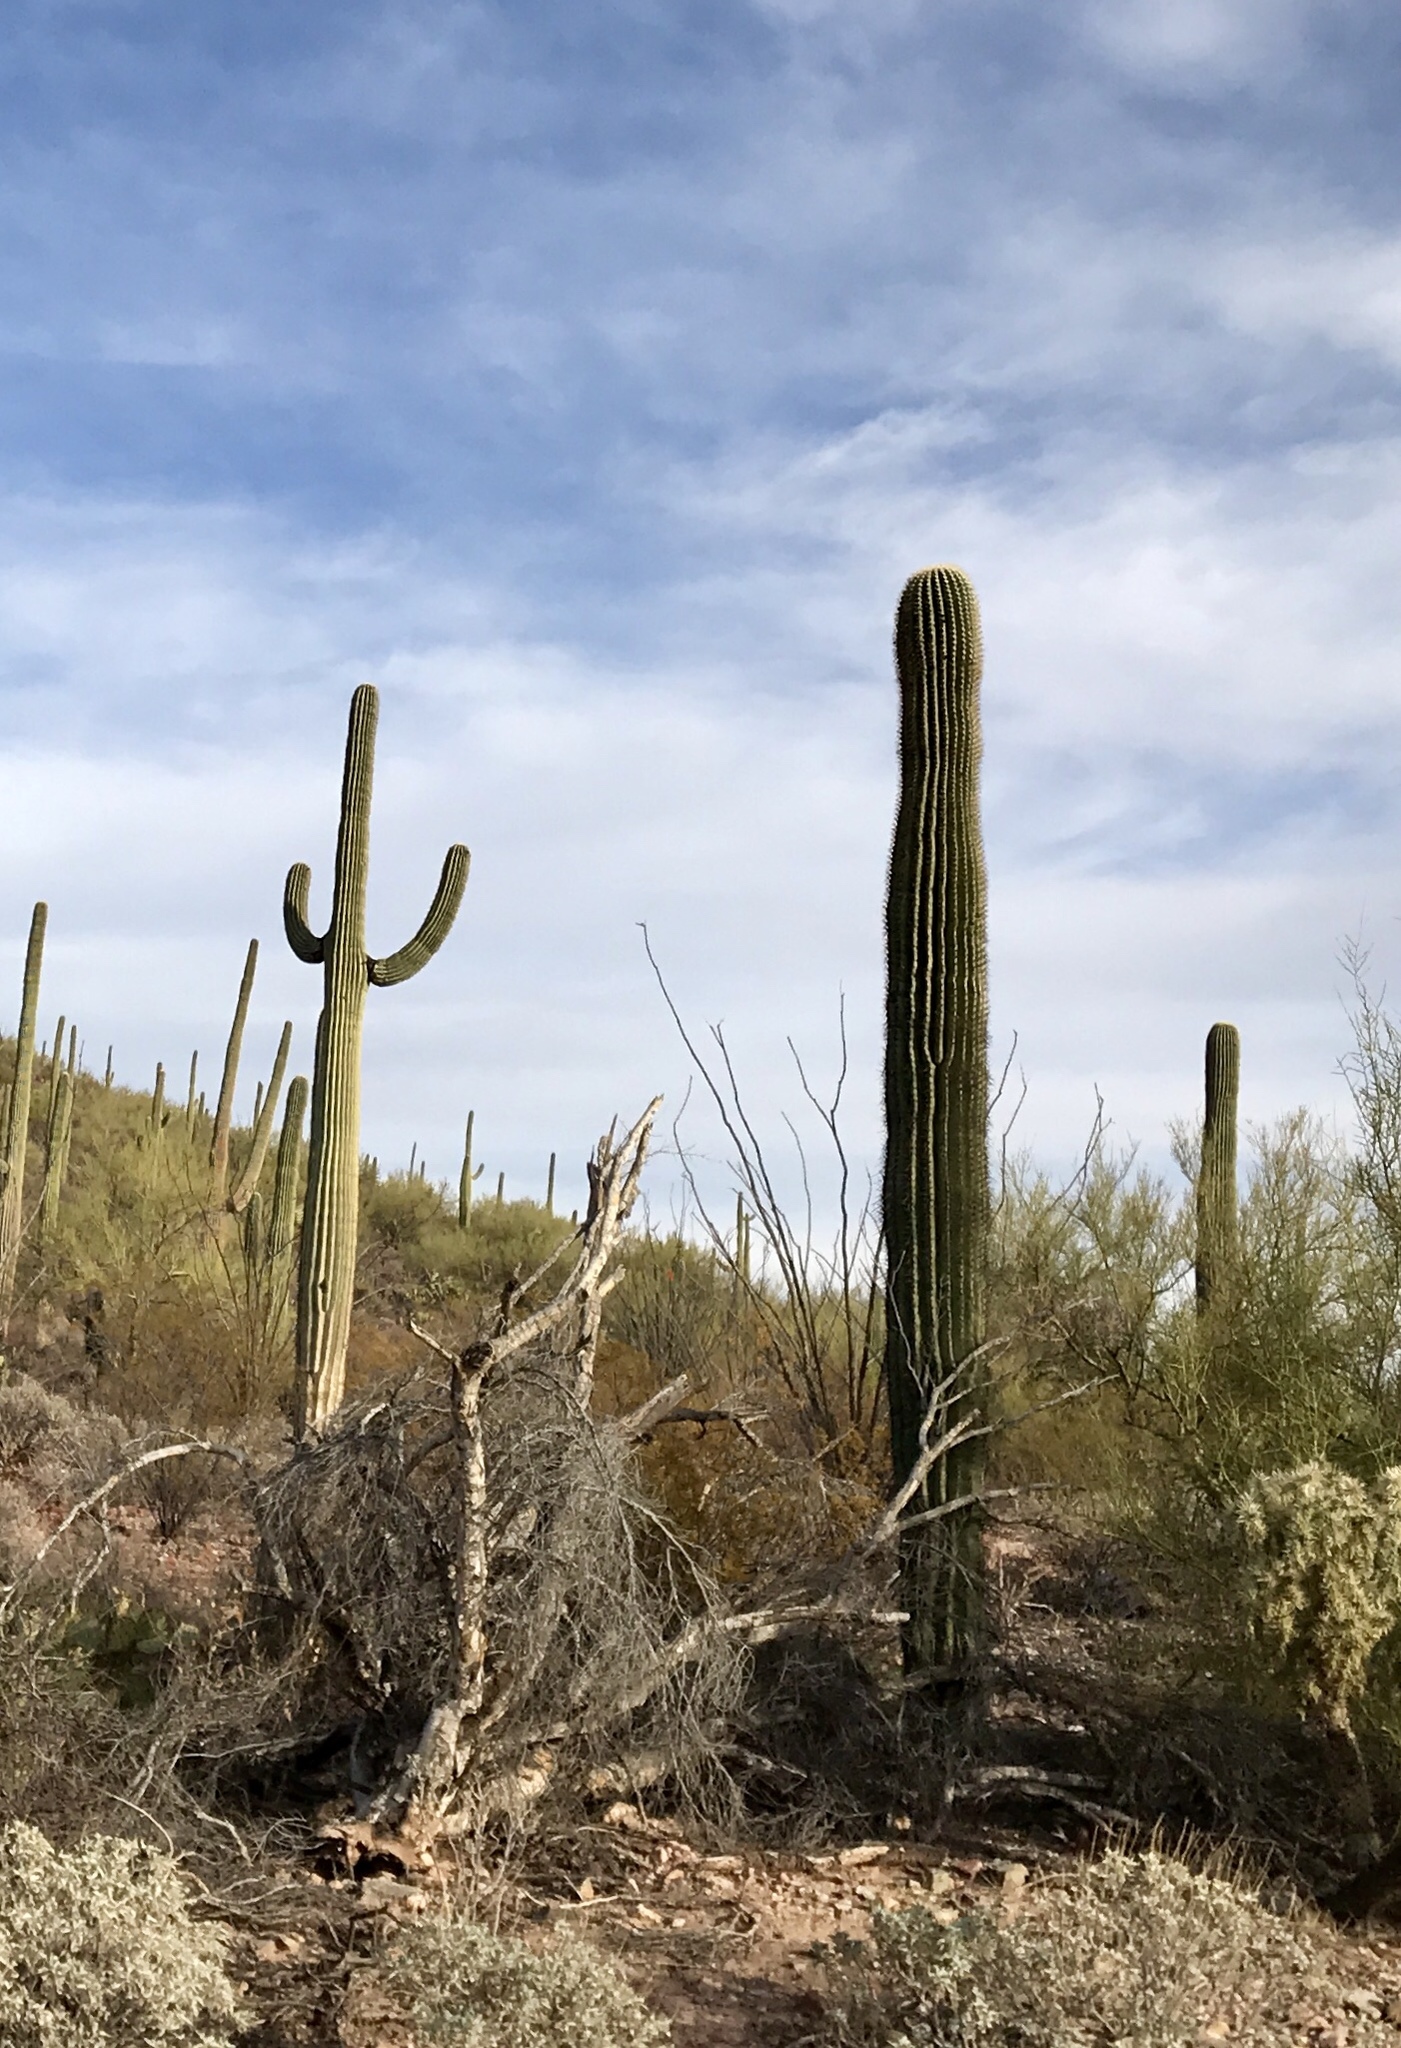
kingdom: Plantae
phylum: Tracheophyta
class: Magnoliopsida
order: Caryophyllales
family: Cactaceae
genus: Carnegiea
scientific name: Carnegiea gigantea
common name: Saguaro
